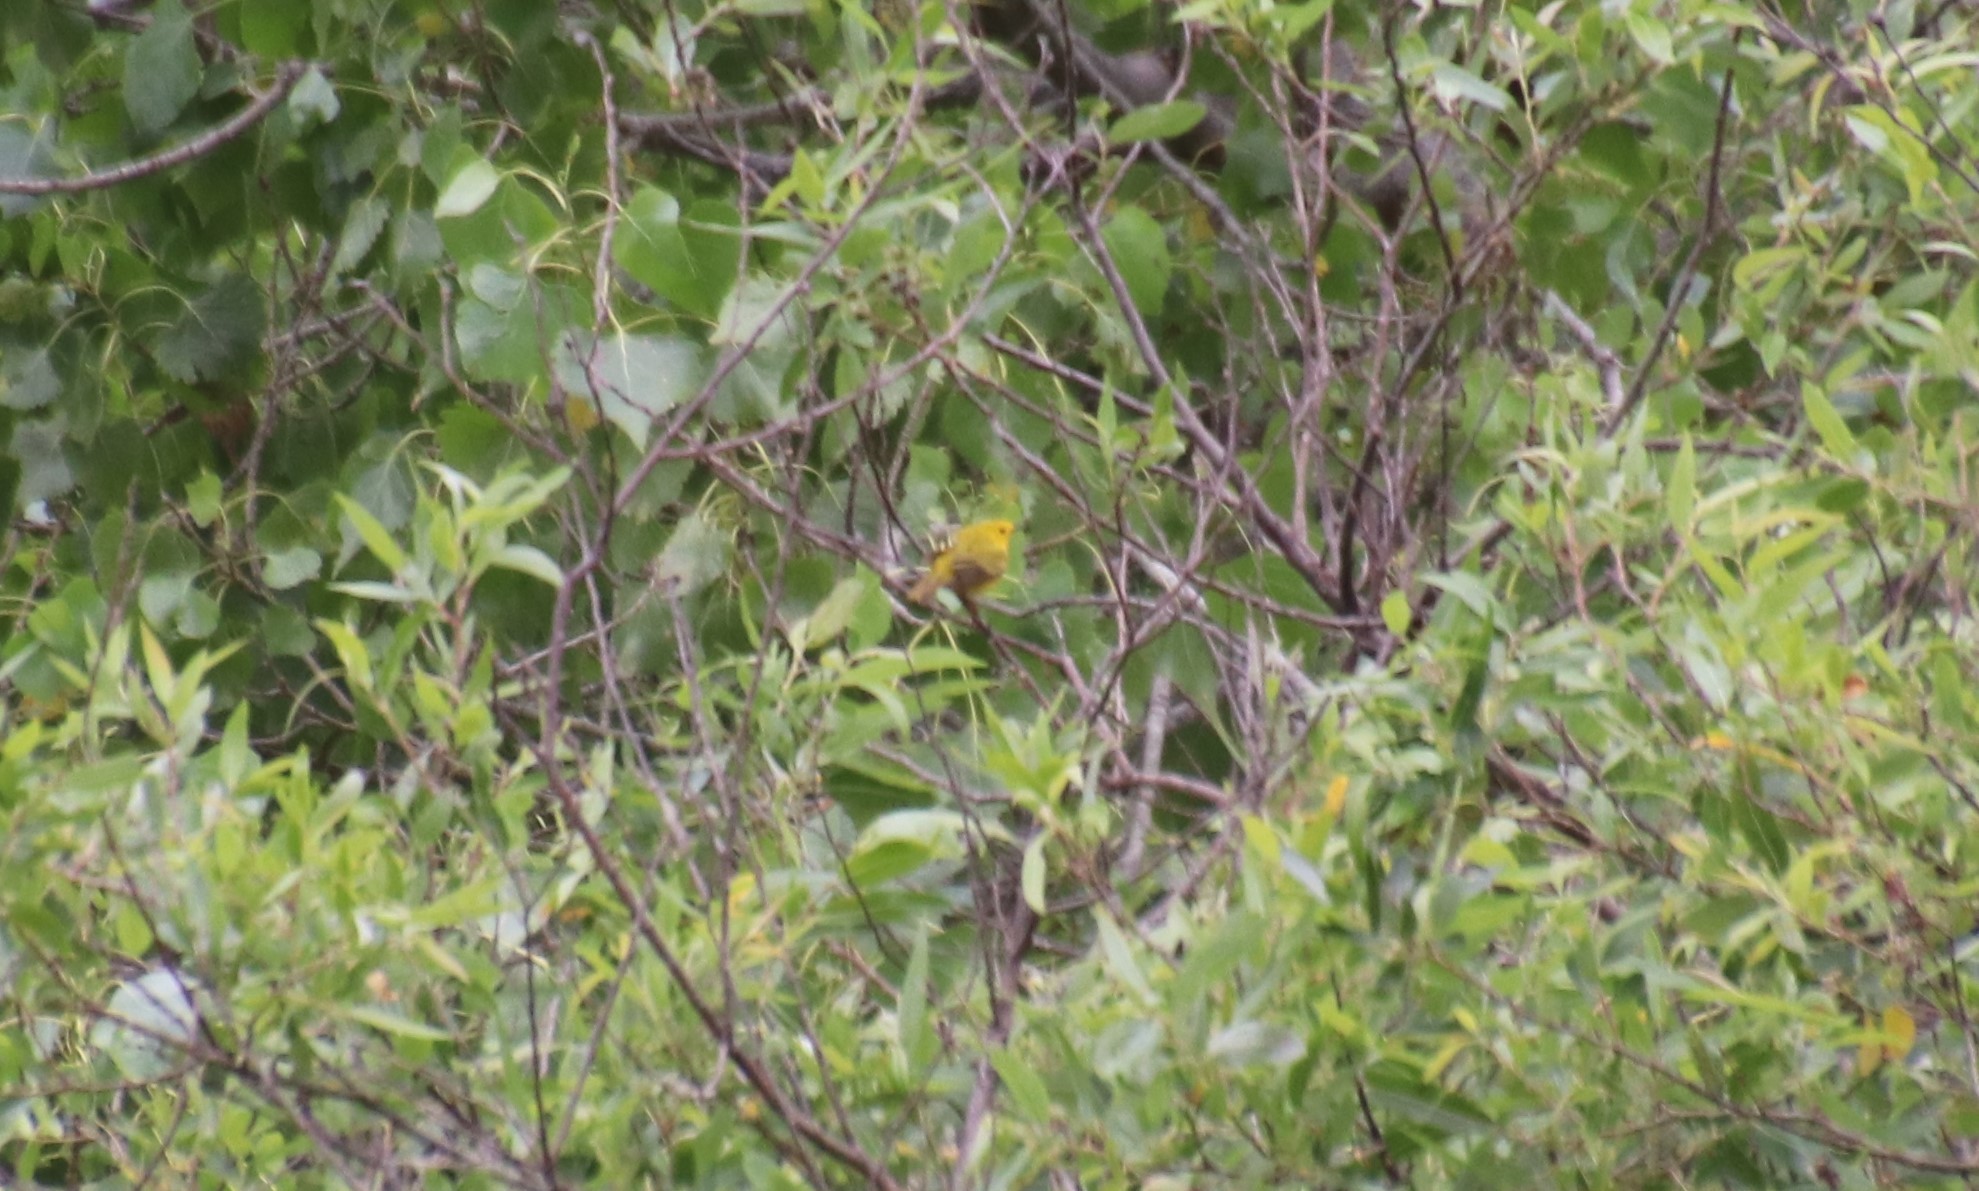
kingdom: Animalia
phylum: Chordata
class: Aves
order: Passeriformes
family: Parulidae
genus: Setophaga
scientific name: Setophaga petechia
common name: Yellow warbler
